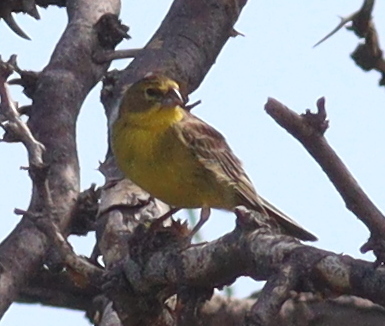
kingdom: Animalia
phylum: Chordata
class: Aves
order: Passeriformes
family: Thraupidae
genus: Sicalis
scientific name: Sicalis luteola
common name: Grassland yellow-finch
